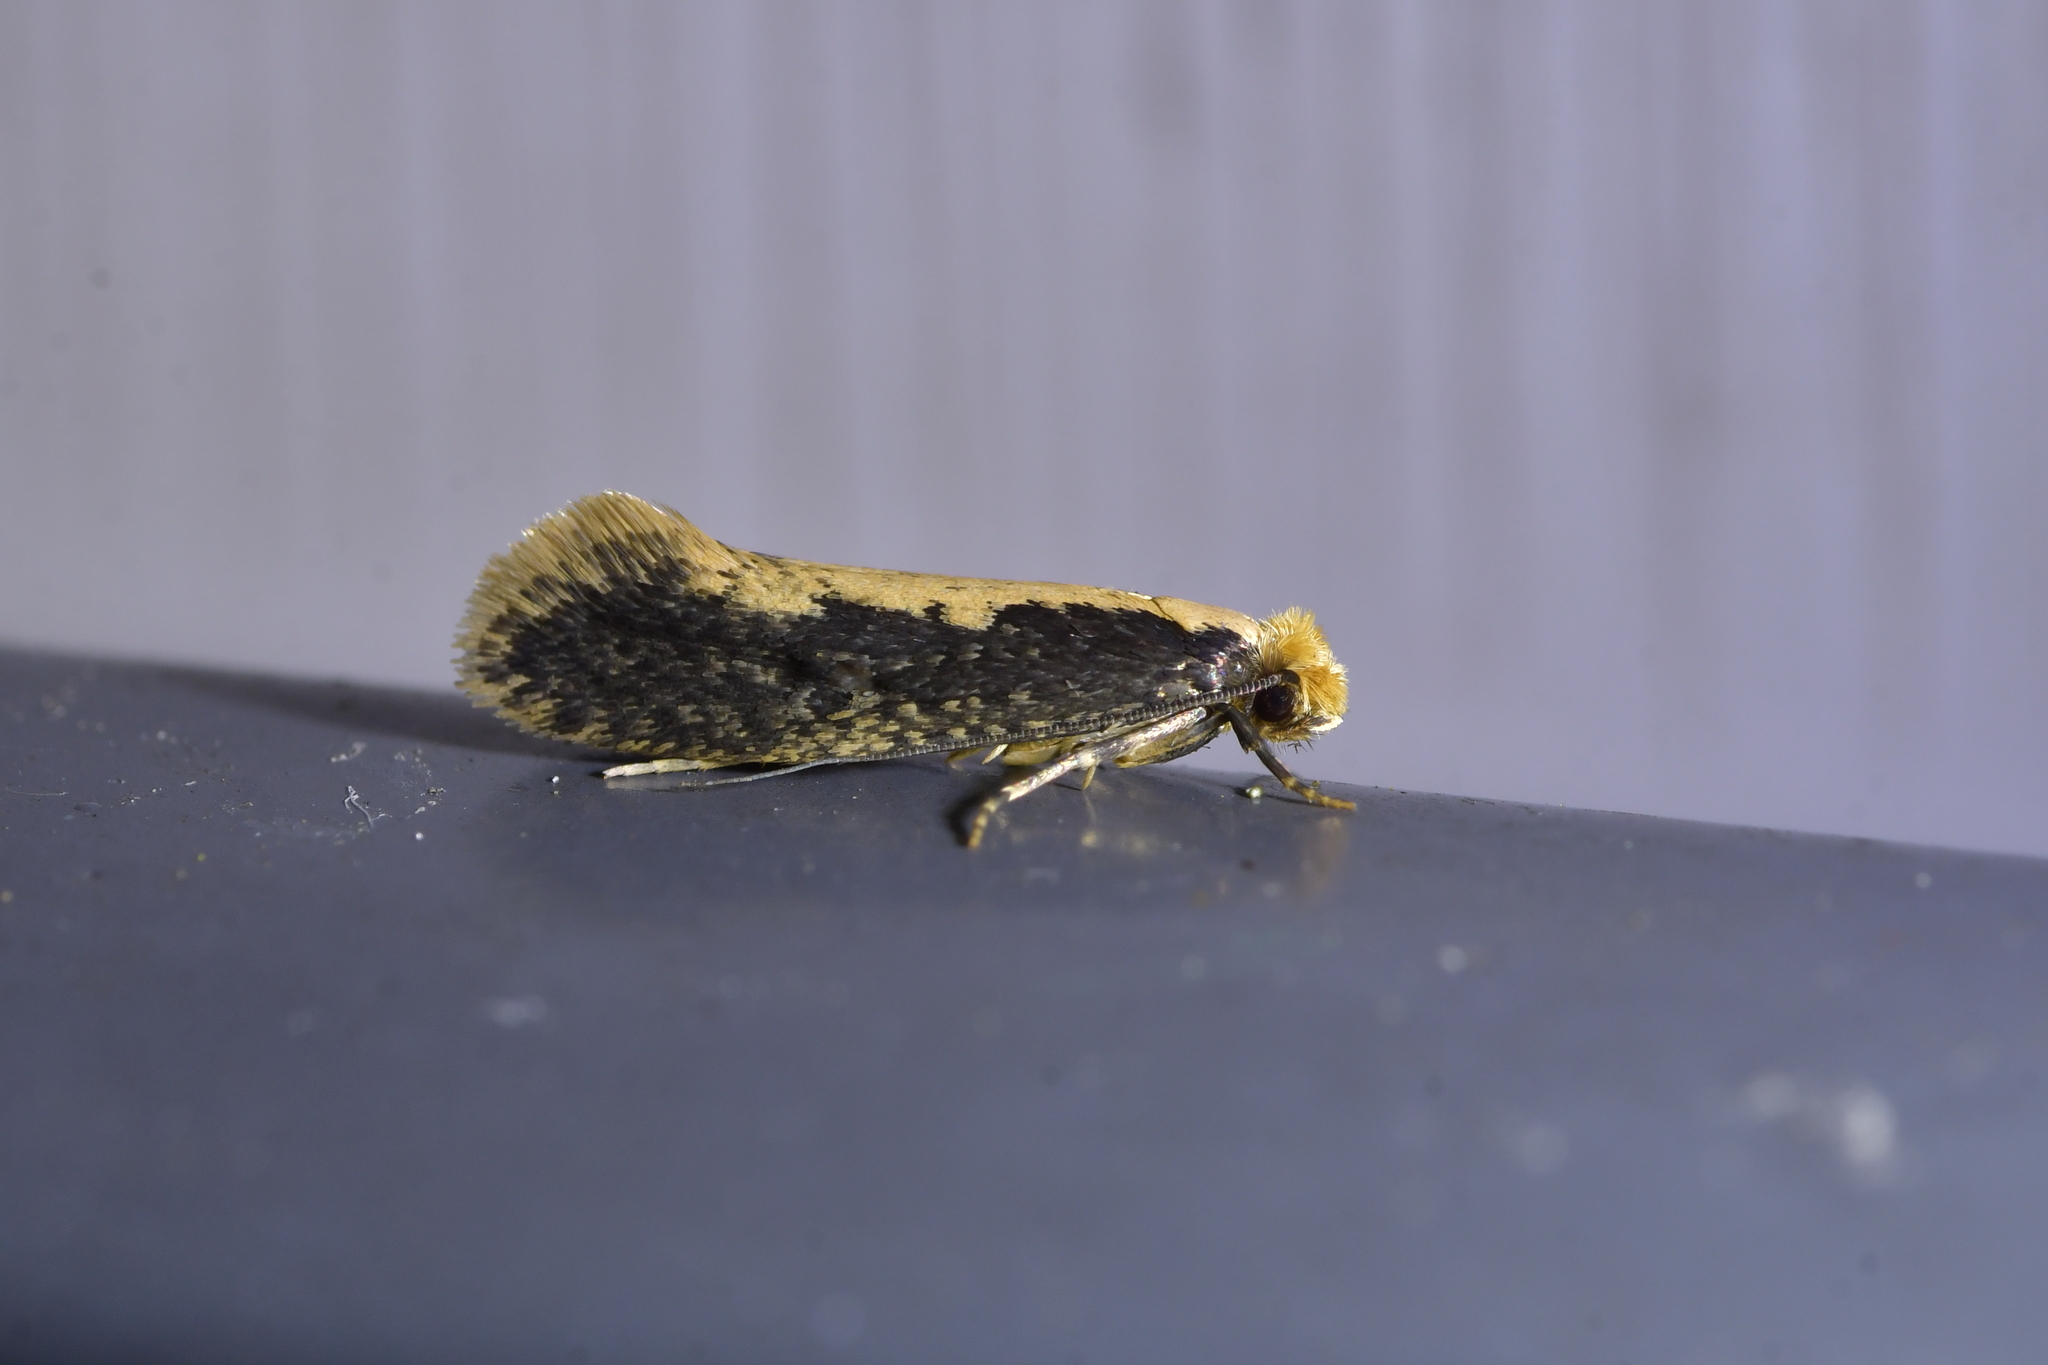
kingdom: Animalia
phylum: Arthropoda
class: Insecta
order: Lepidoptera
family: Tineidae
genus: Monopis
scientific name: Monopis crocicapitella
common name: Moth
